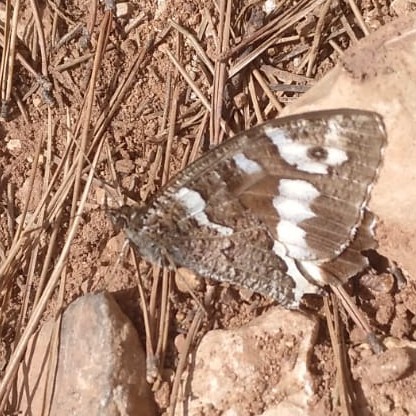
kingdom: Animalia
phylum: Arthropoda
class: Insecta
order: Lepidoptera
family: Lycaenidae
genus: Loweia
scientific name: Loweia tityrus
